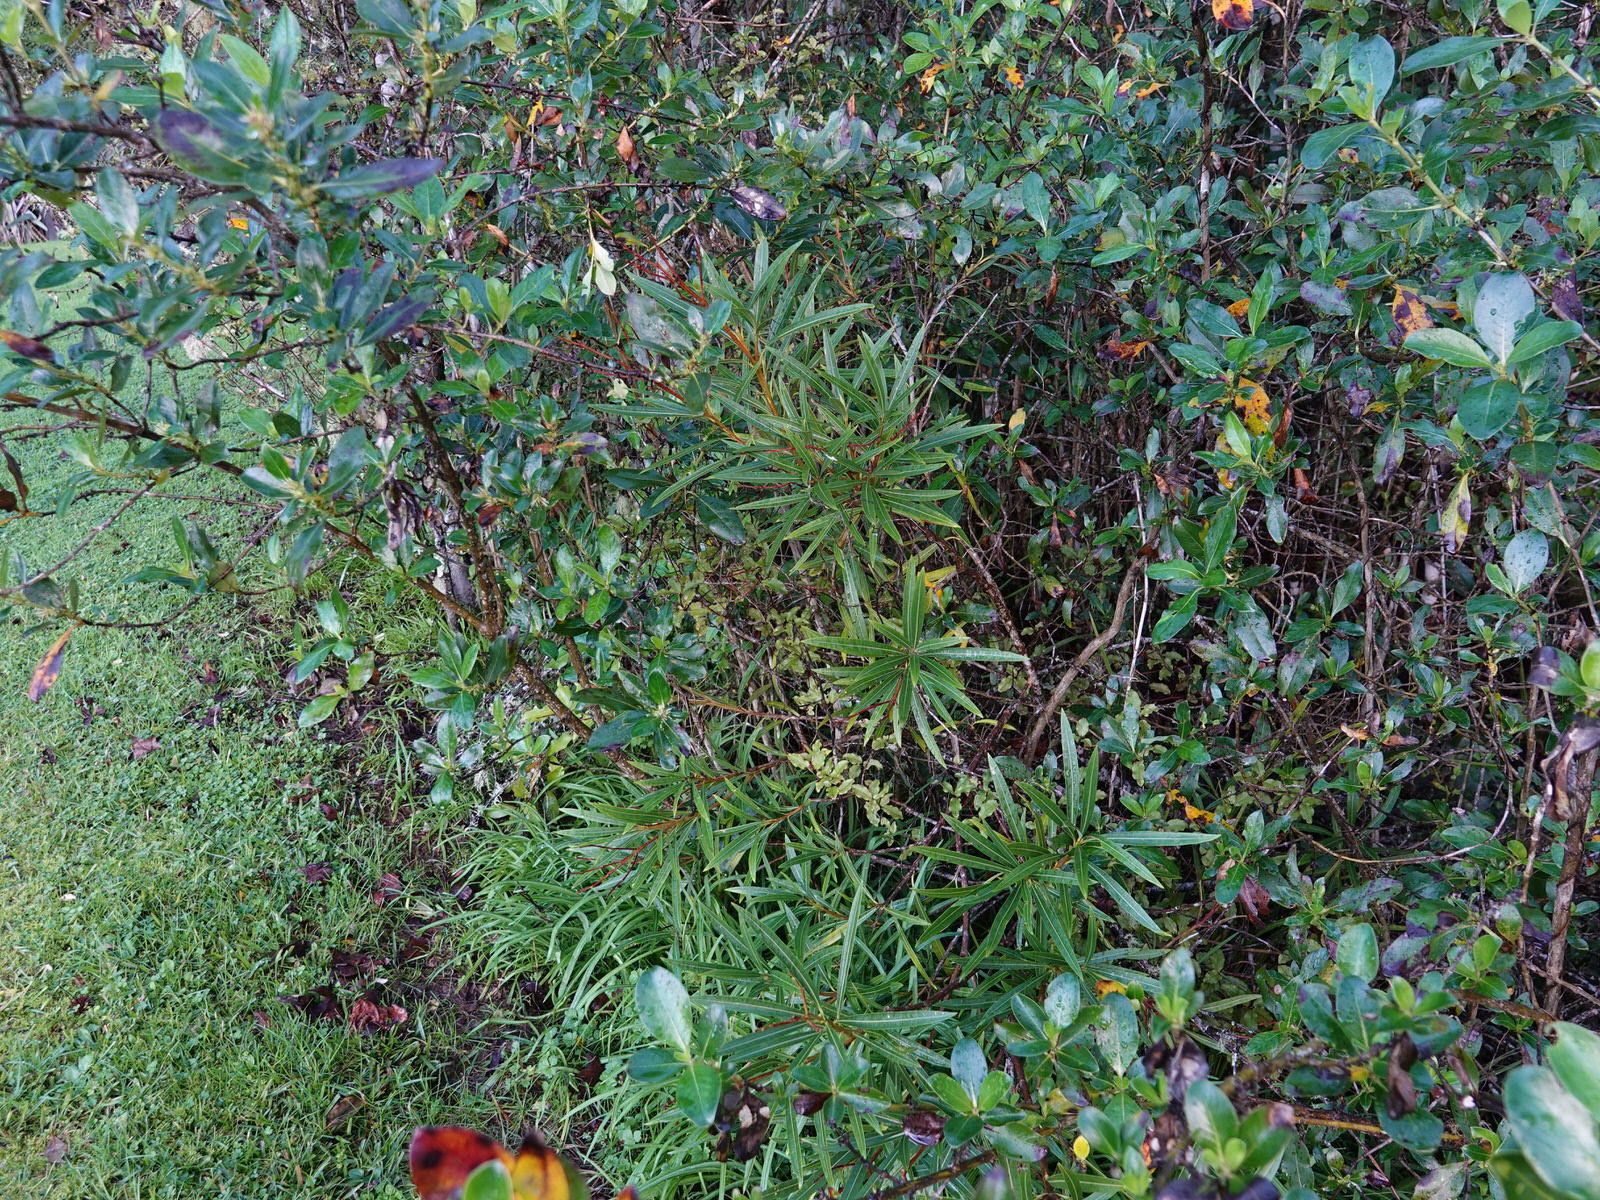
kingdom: Plantae
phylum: Tracheophyta
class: Magnoliopsida
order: Gentianales
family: Apocynaceae
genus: Nerium
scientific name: Nerium oleander
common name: Oleander
